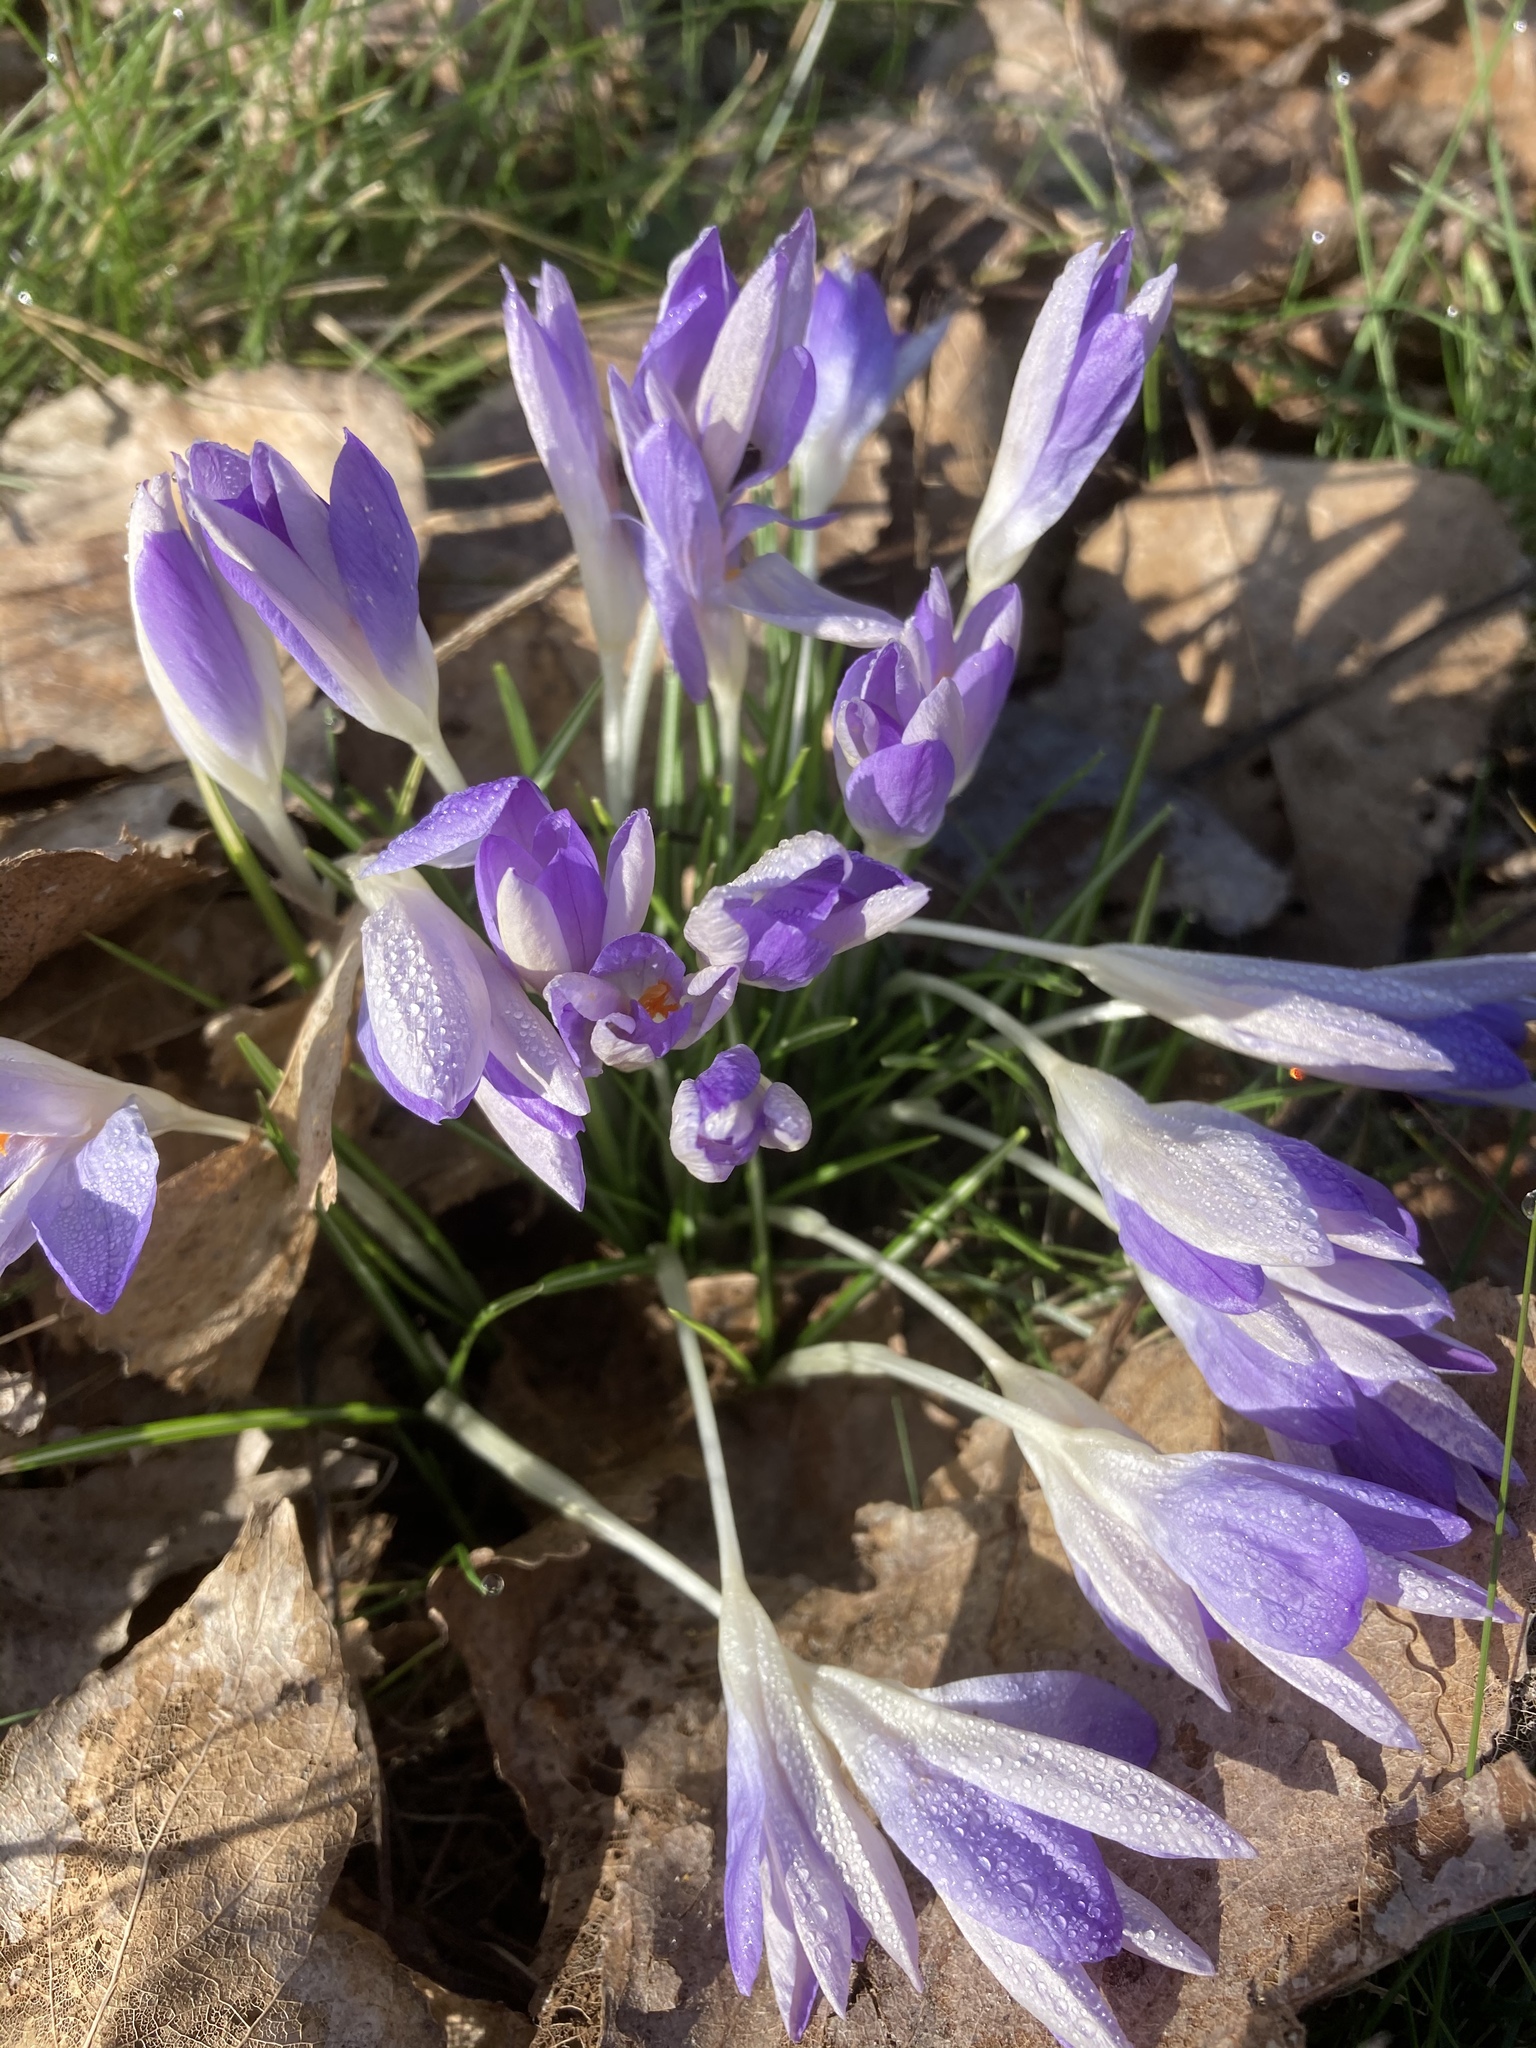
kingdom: Plantae
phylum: Tracheophyta
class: Liliopsida
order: Asparagales
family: Iridaceae
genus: Crocus
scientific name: Crocus tommasinianus
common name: Early crocus
